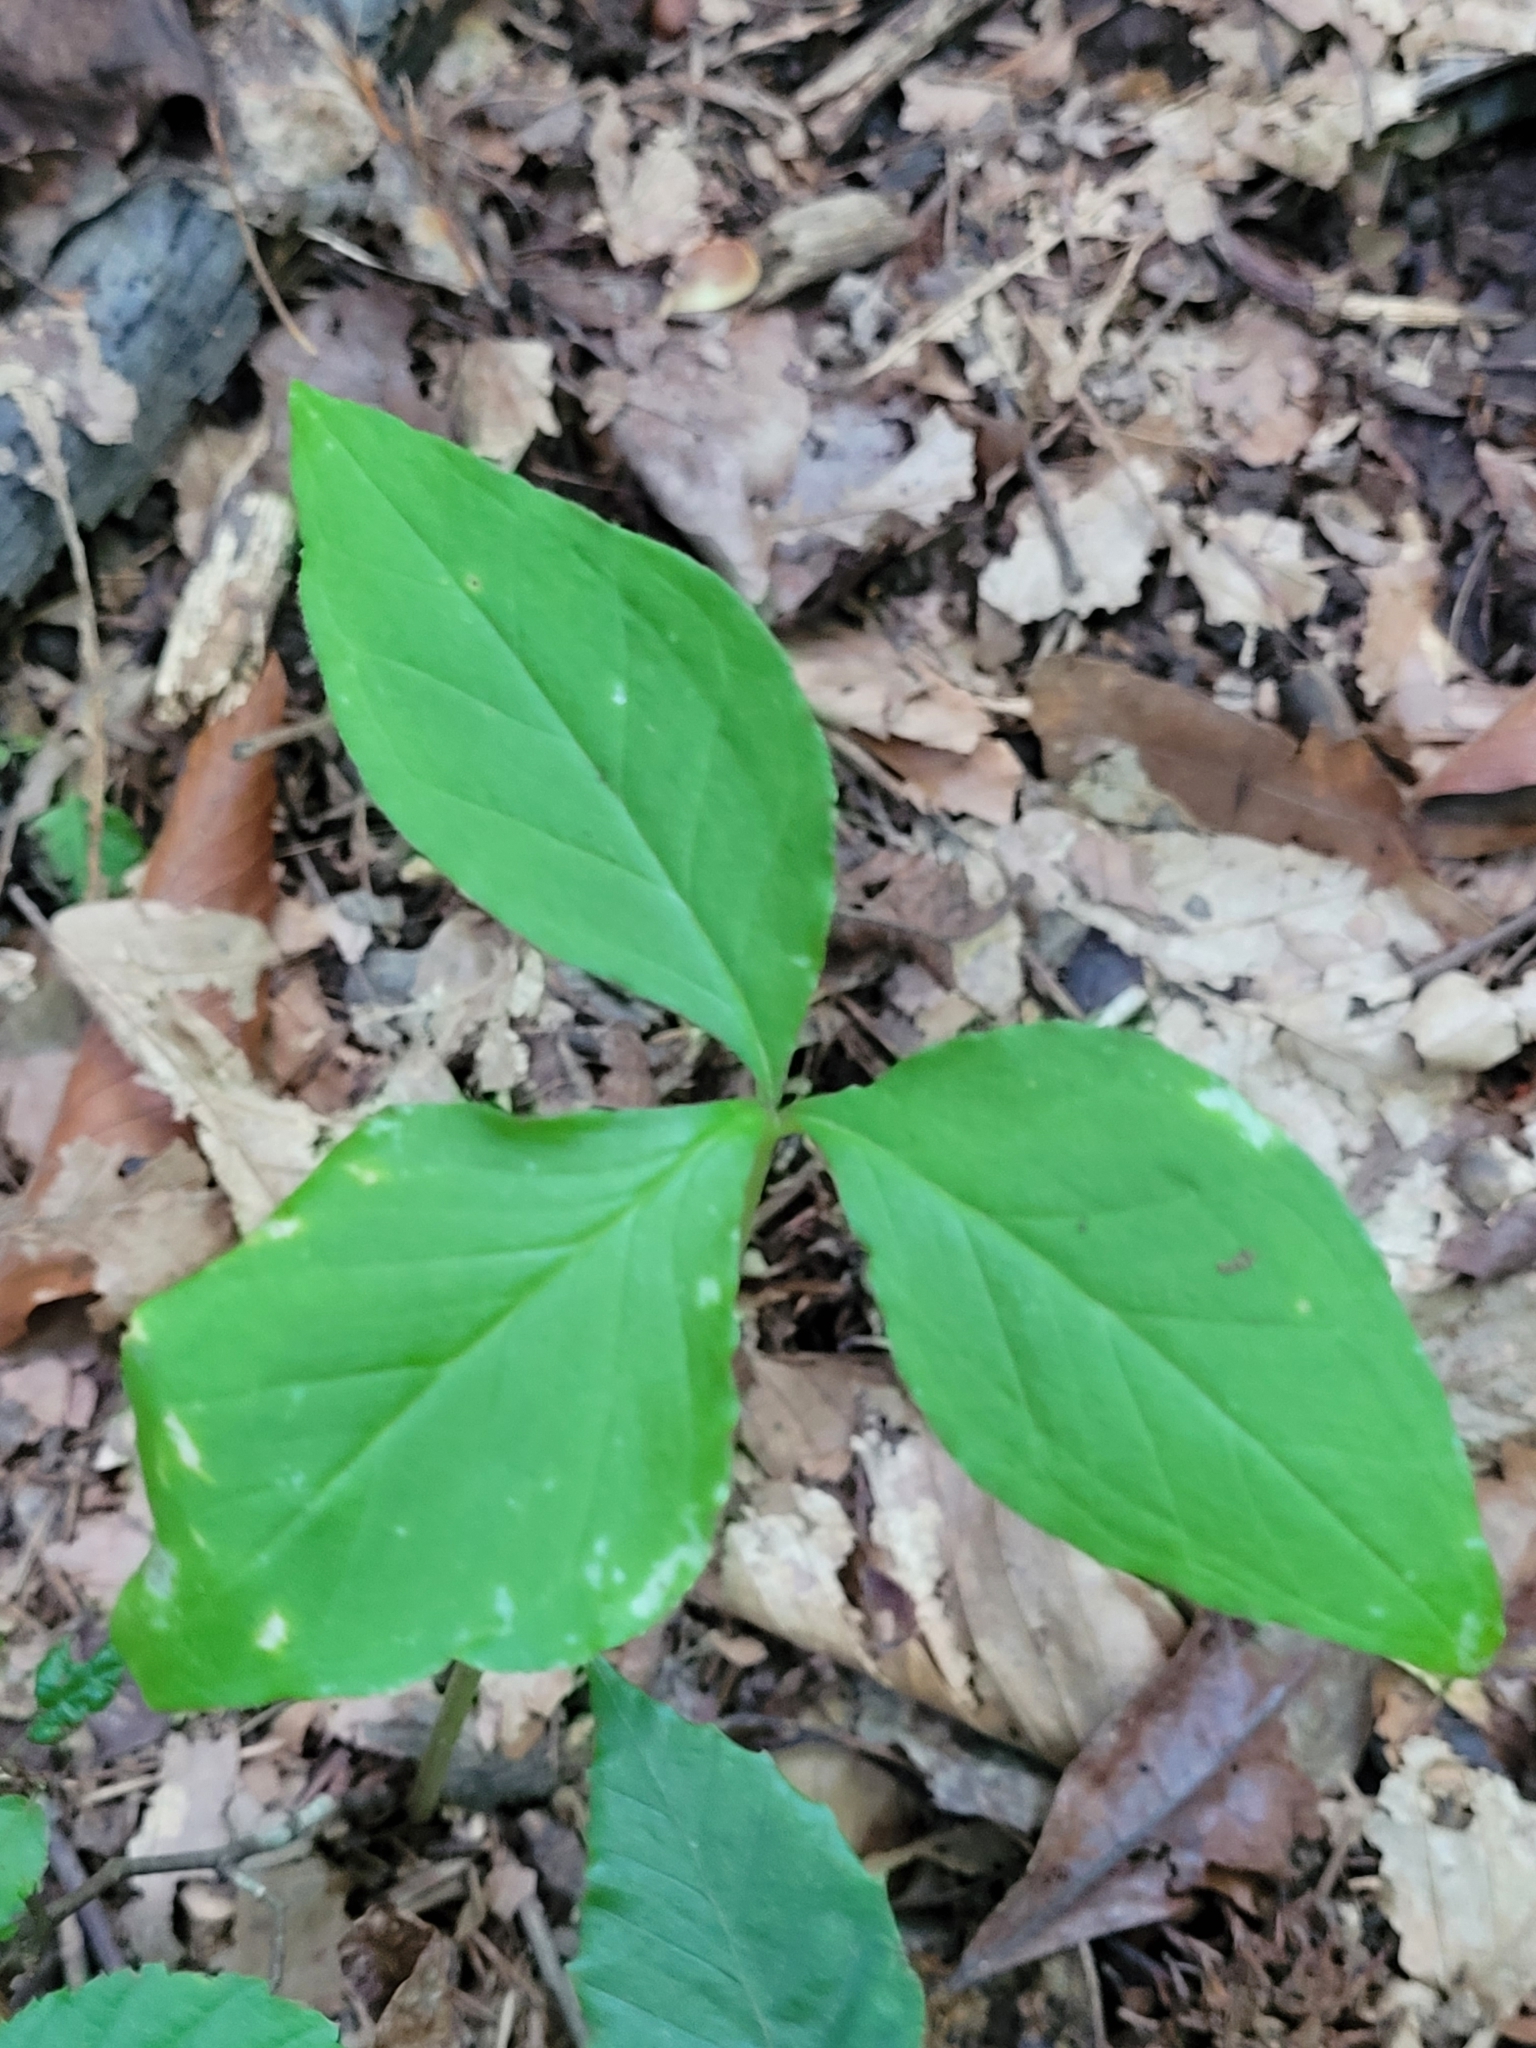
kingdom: Plantae
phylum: Tracheophyta
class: Liliopsida
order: Alismatales
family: Araceae
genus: Arisaema
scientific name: Arisaema triphyllum
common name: Jack-in-the-pulpit
